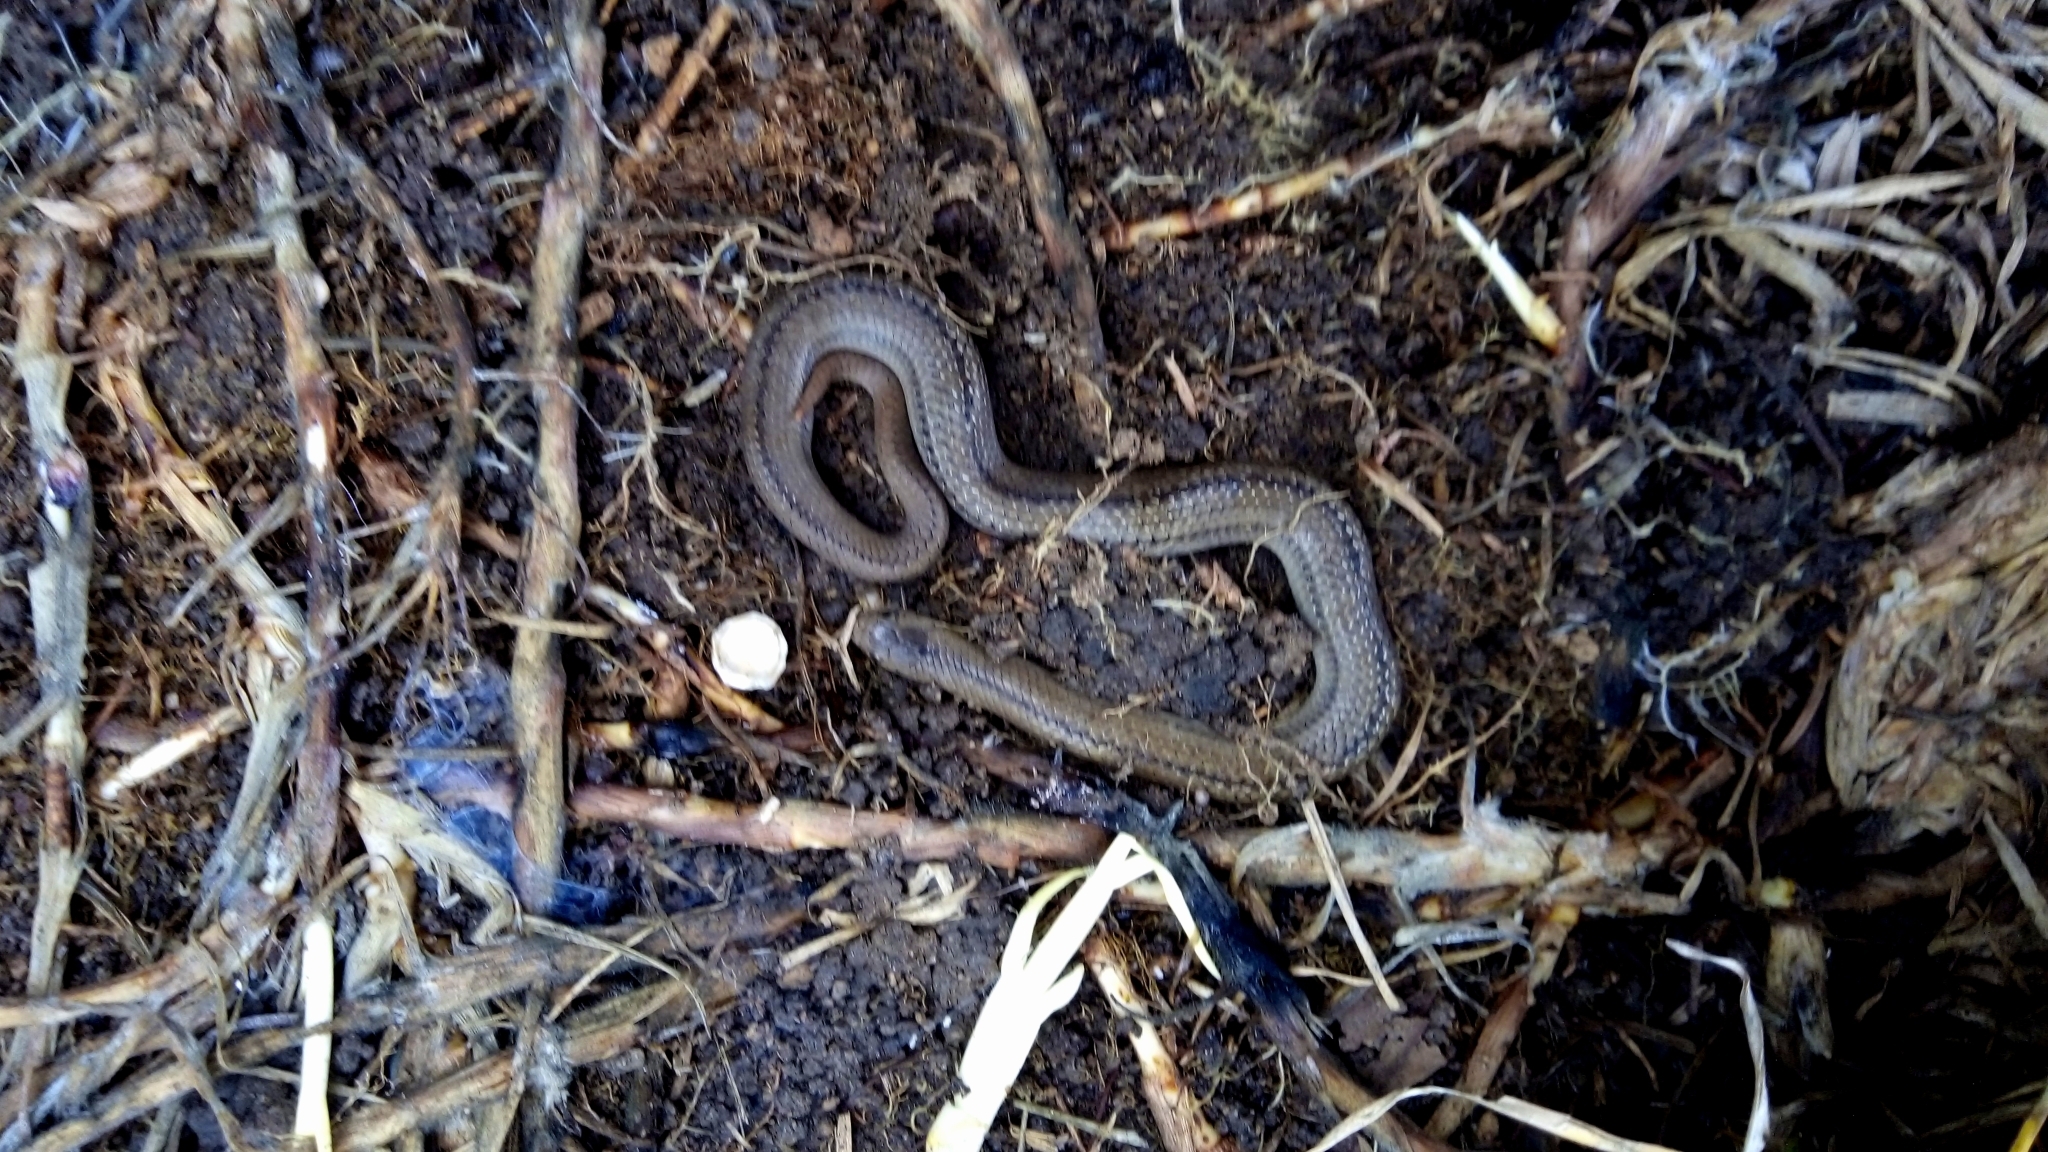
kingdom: Animalia
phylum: Chordata
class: Squamata
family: Colubridae
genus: Conopsis
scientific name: Conopsis lineata
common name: Lined tolucan earthsnake
